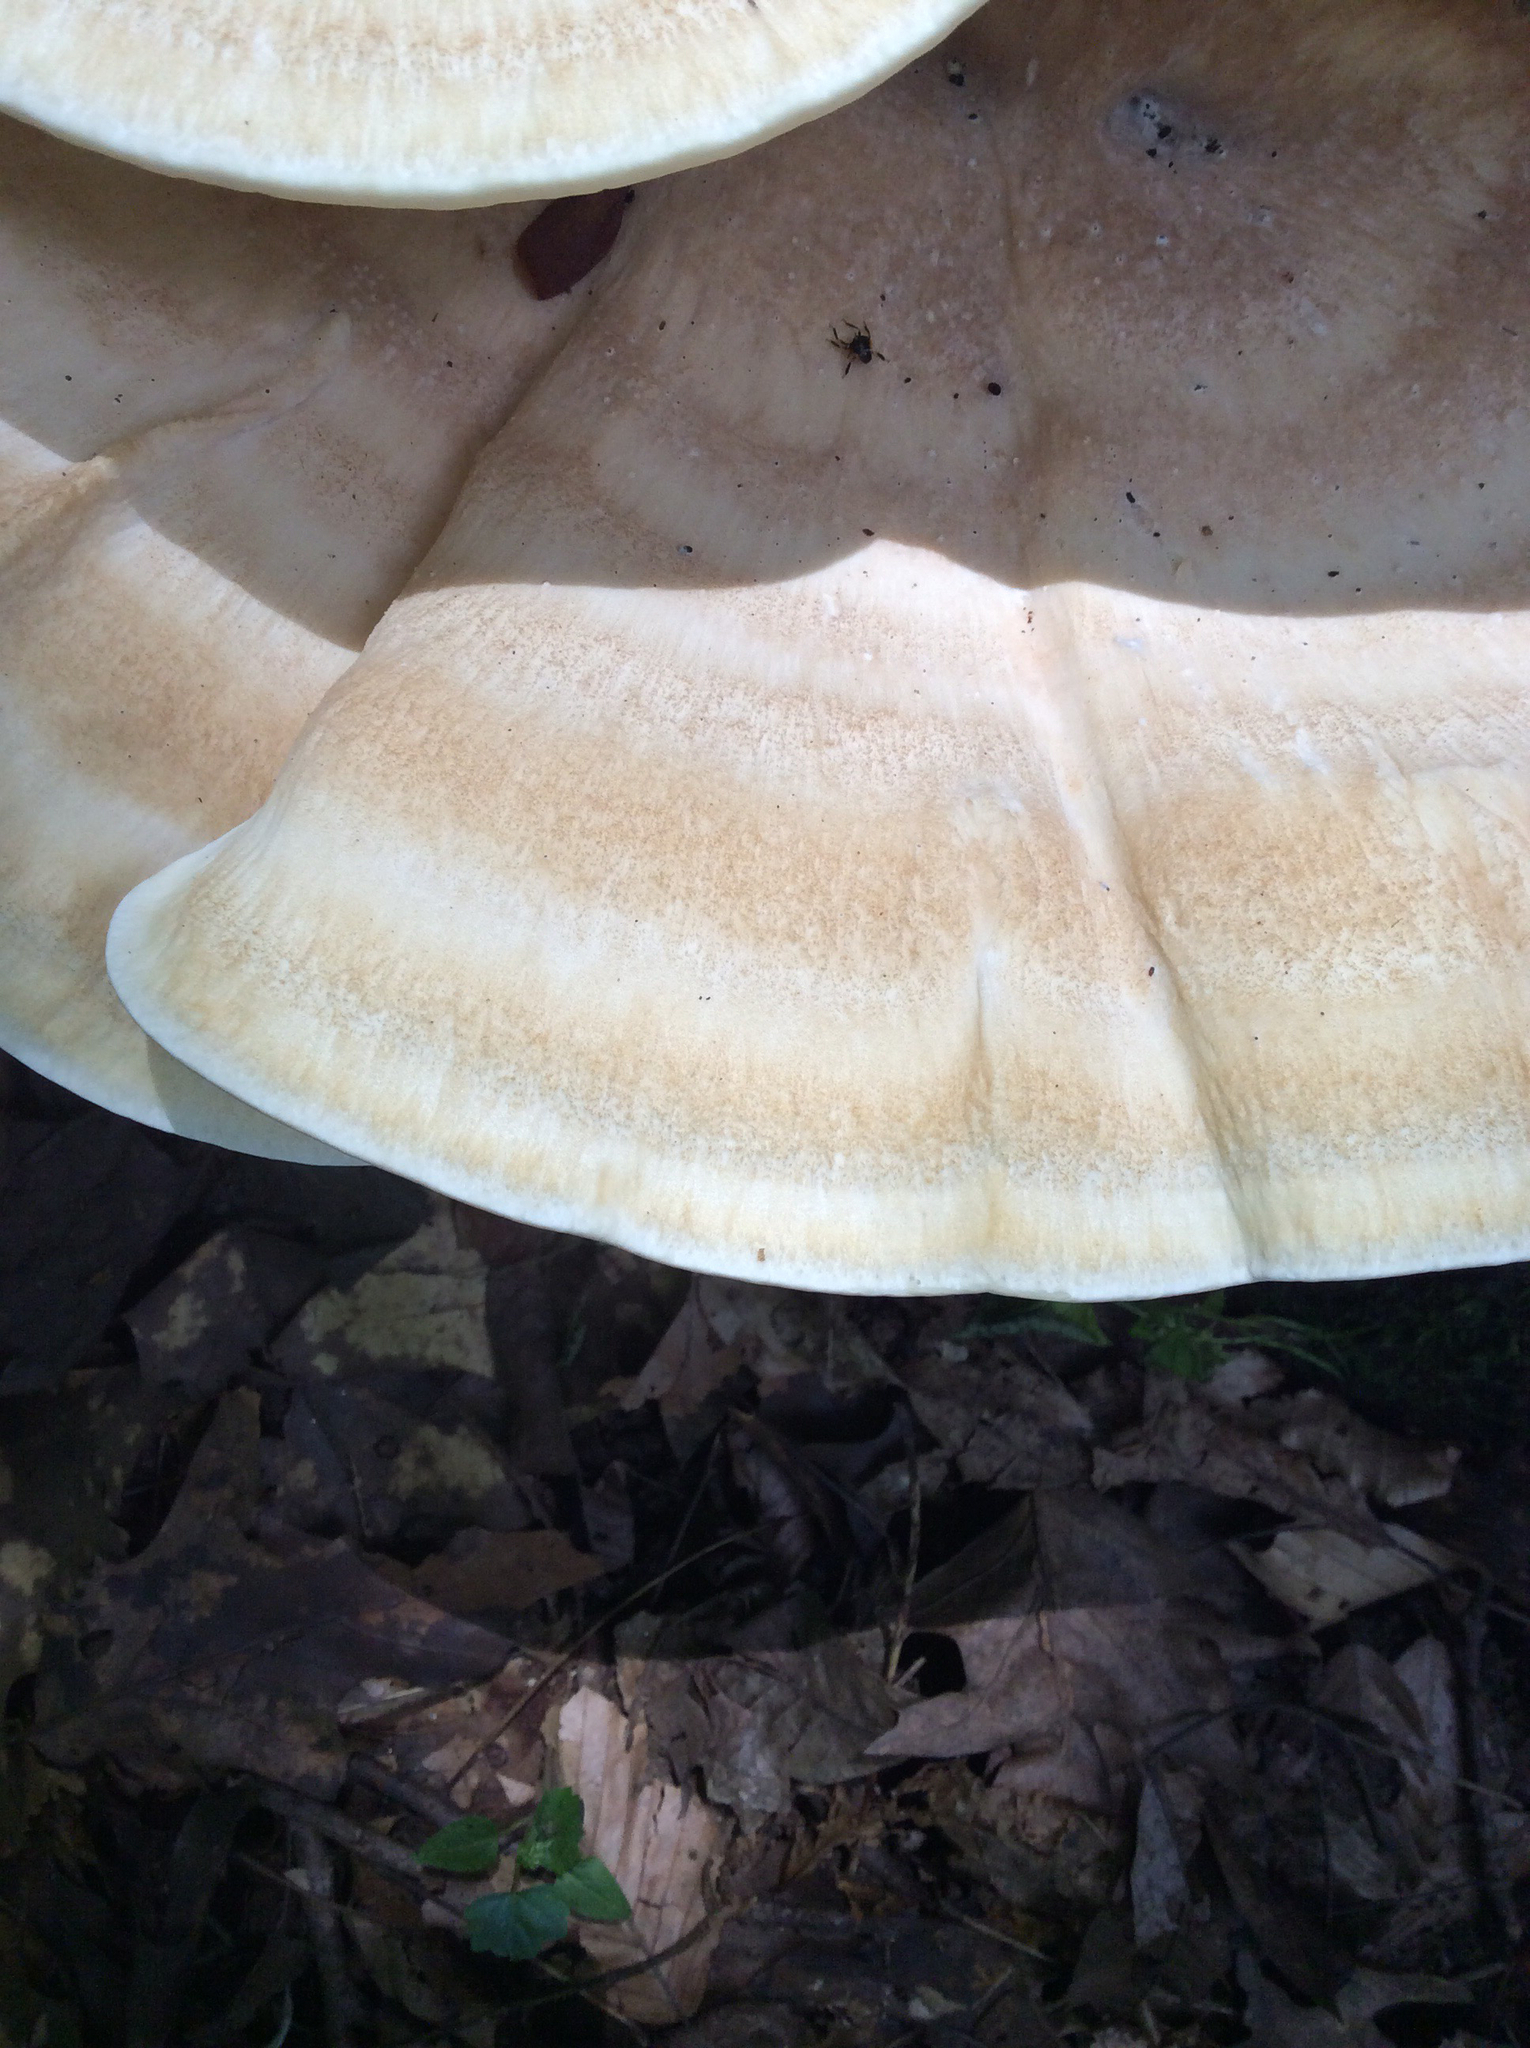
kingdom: Fungi
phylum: Basidiomycota
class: Agaricomycetes
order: Russulales
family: Bondarzewiaceae
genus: Bondarzewia
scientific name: Bondarzewia berkeleyi
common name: Berkeley's polypore
